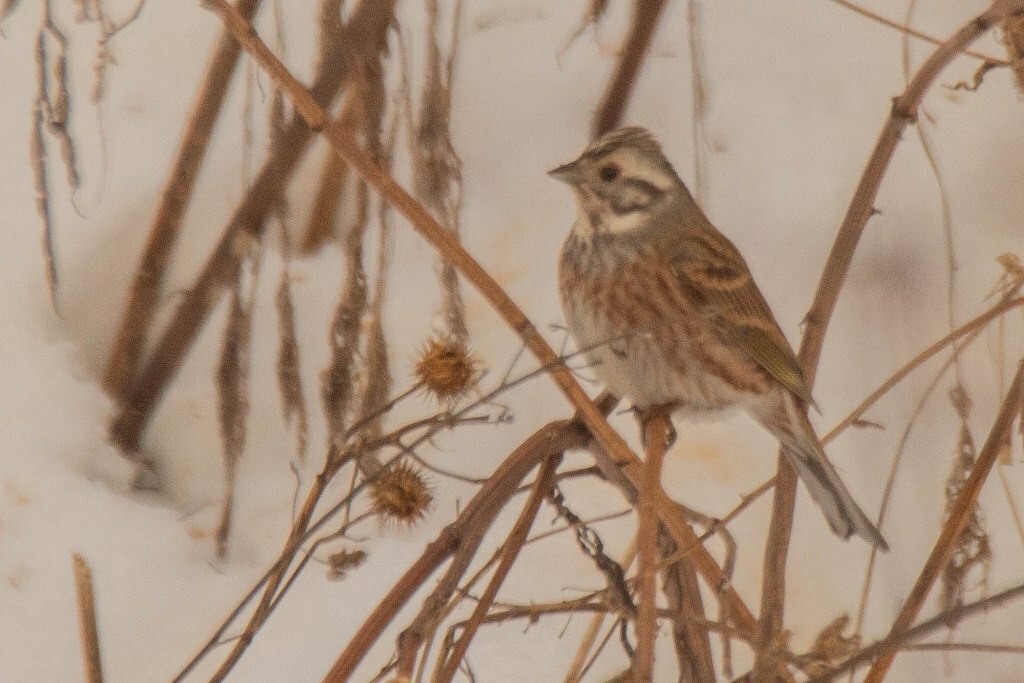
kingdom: Animalia
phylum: Chordata
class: Aves
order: Passeriformes
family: Emberizidae
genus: Emberiza
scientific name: Emberiza
